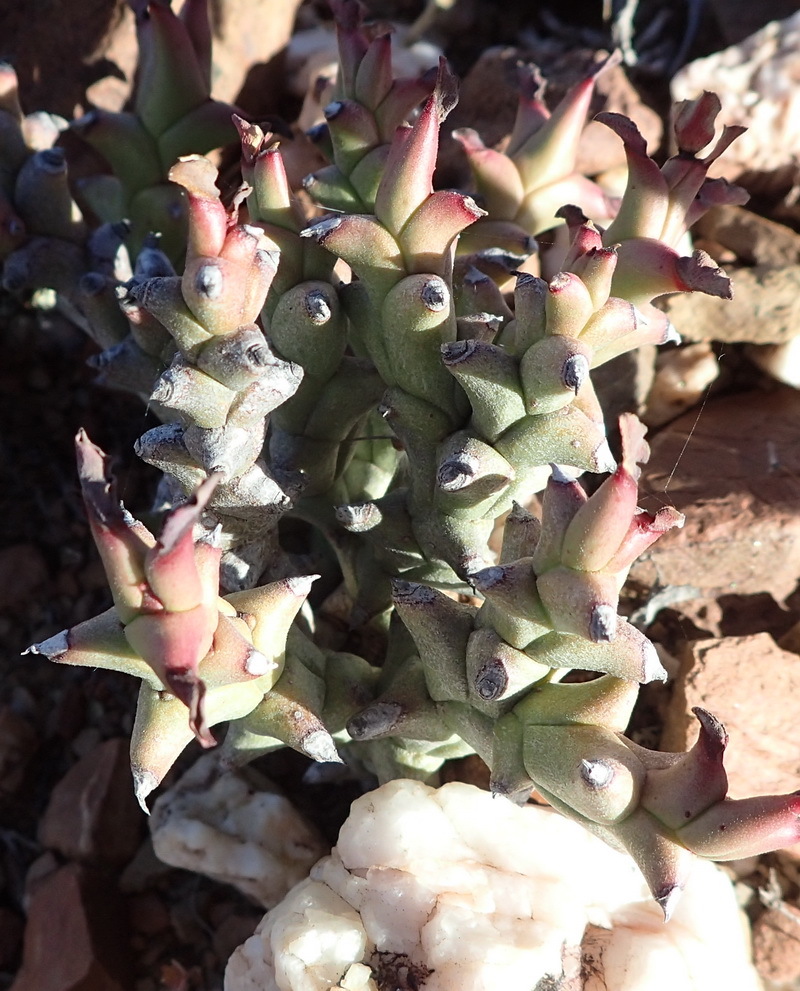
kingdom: Plantae
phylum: Tracheophyta
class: Magnoliopsida
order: Malpighiales
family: Euphorbiaceae
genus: Euphorbia
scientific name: Euphorbia hamata
